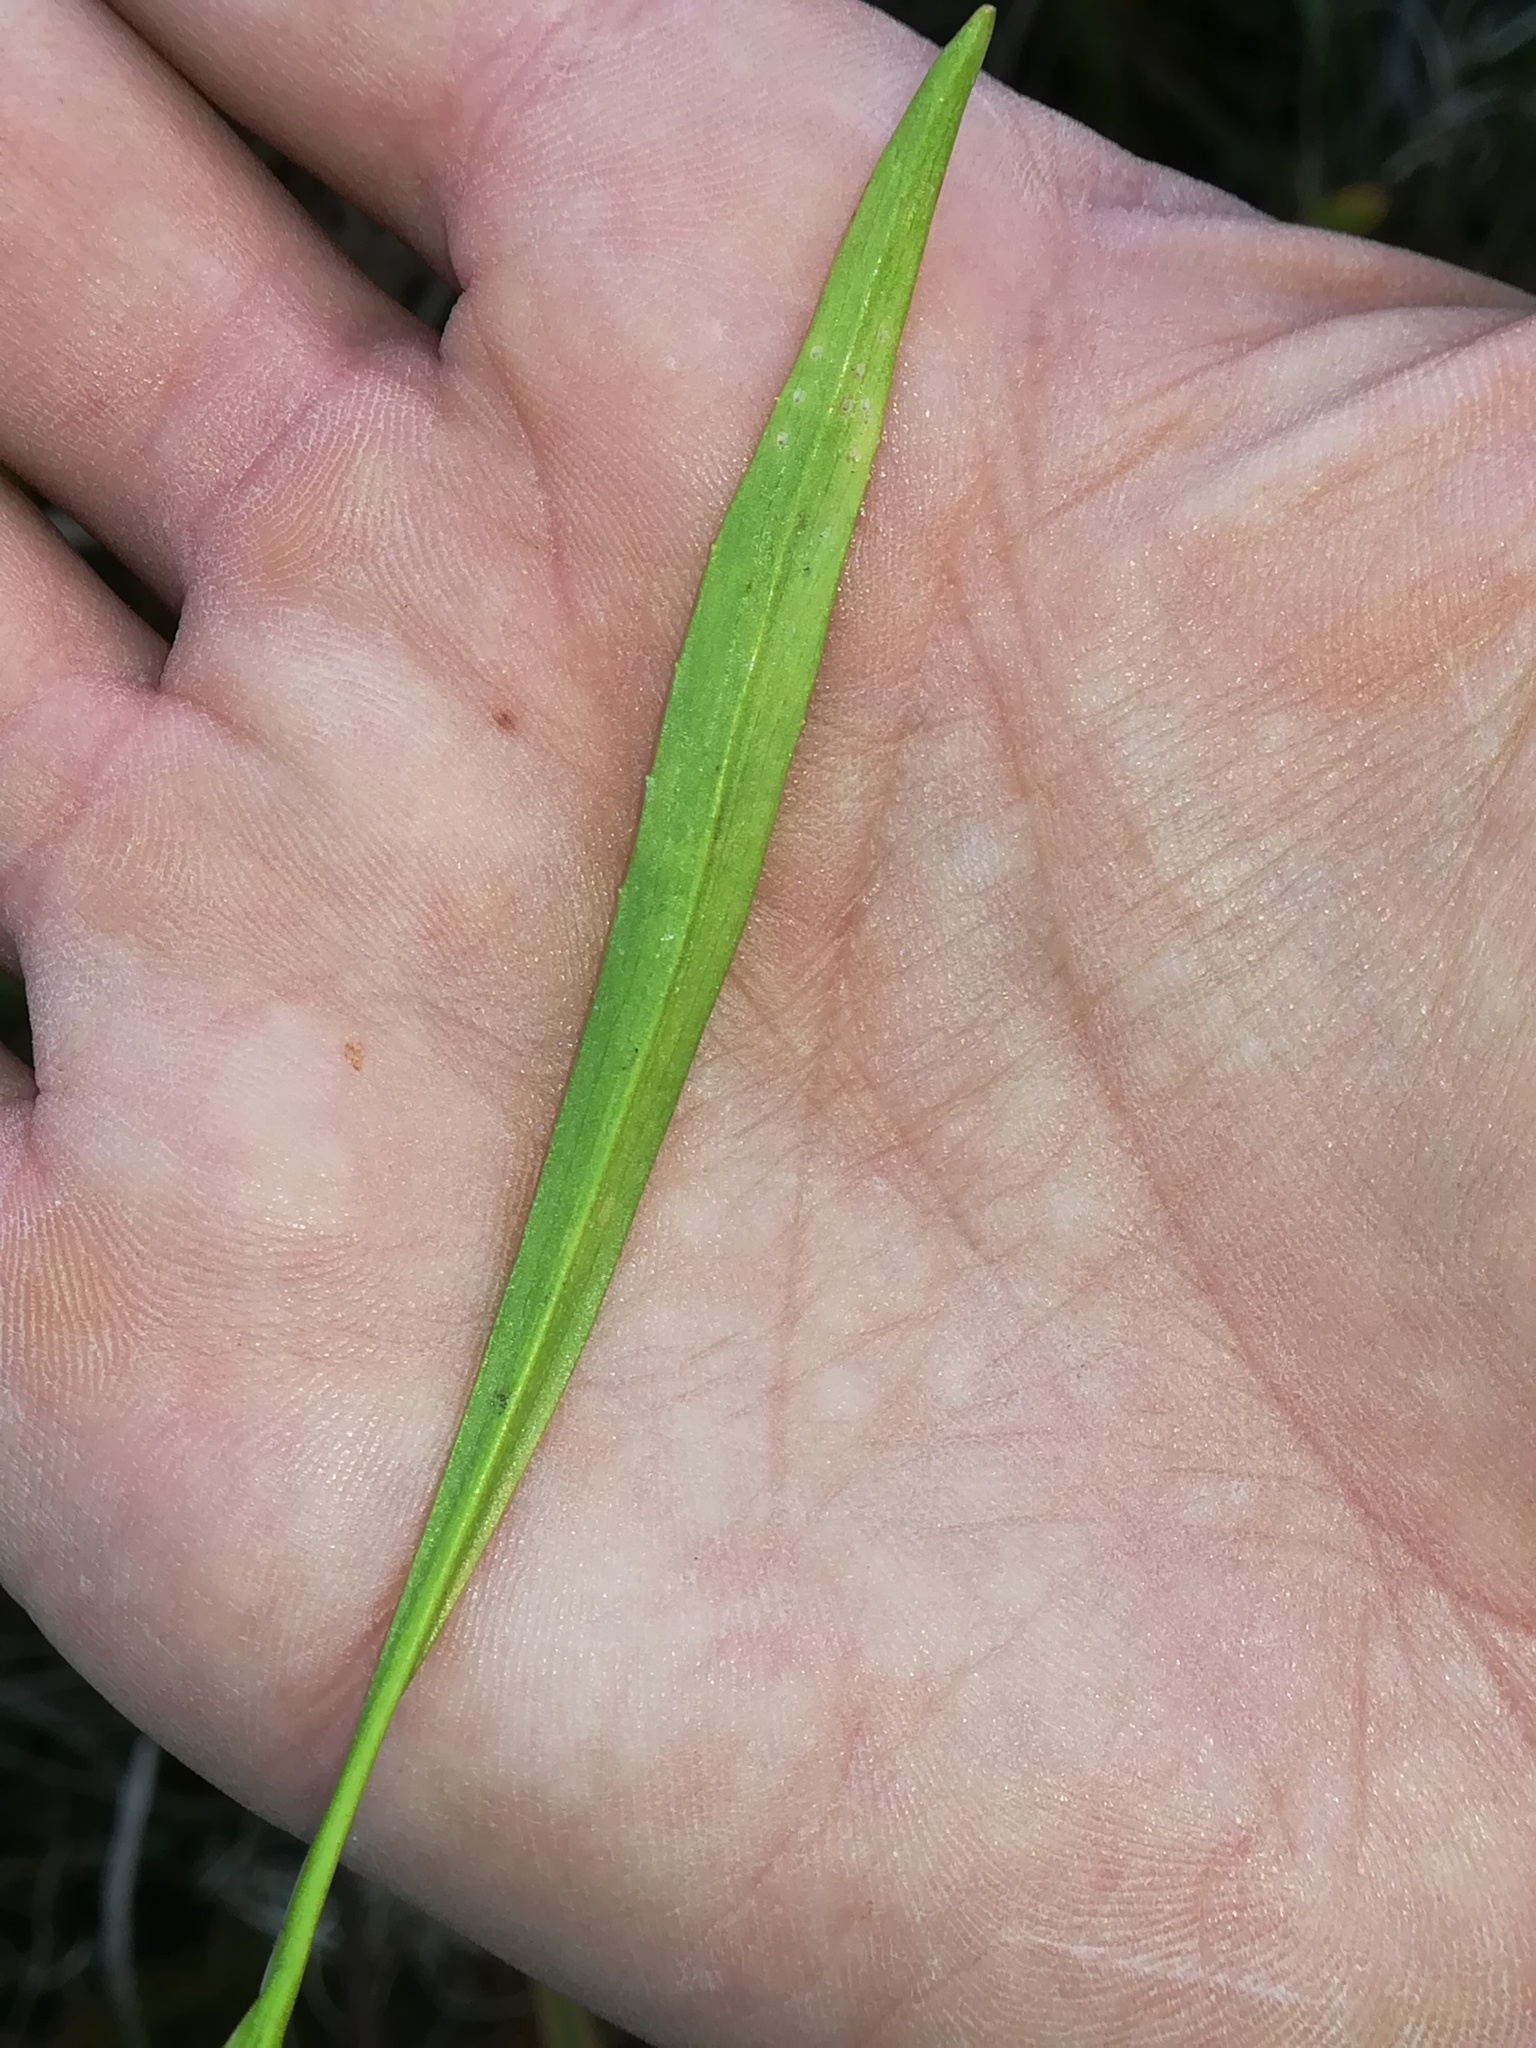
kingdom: Plantae
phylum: Tracheophyta
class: Magnoliopsida
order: Ranunculales
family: Ranunculaceae
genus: Ranunculus
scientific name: Ranunculus flammula
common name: Lesser spearwort
